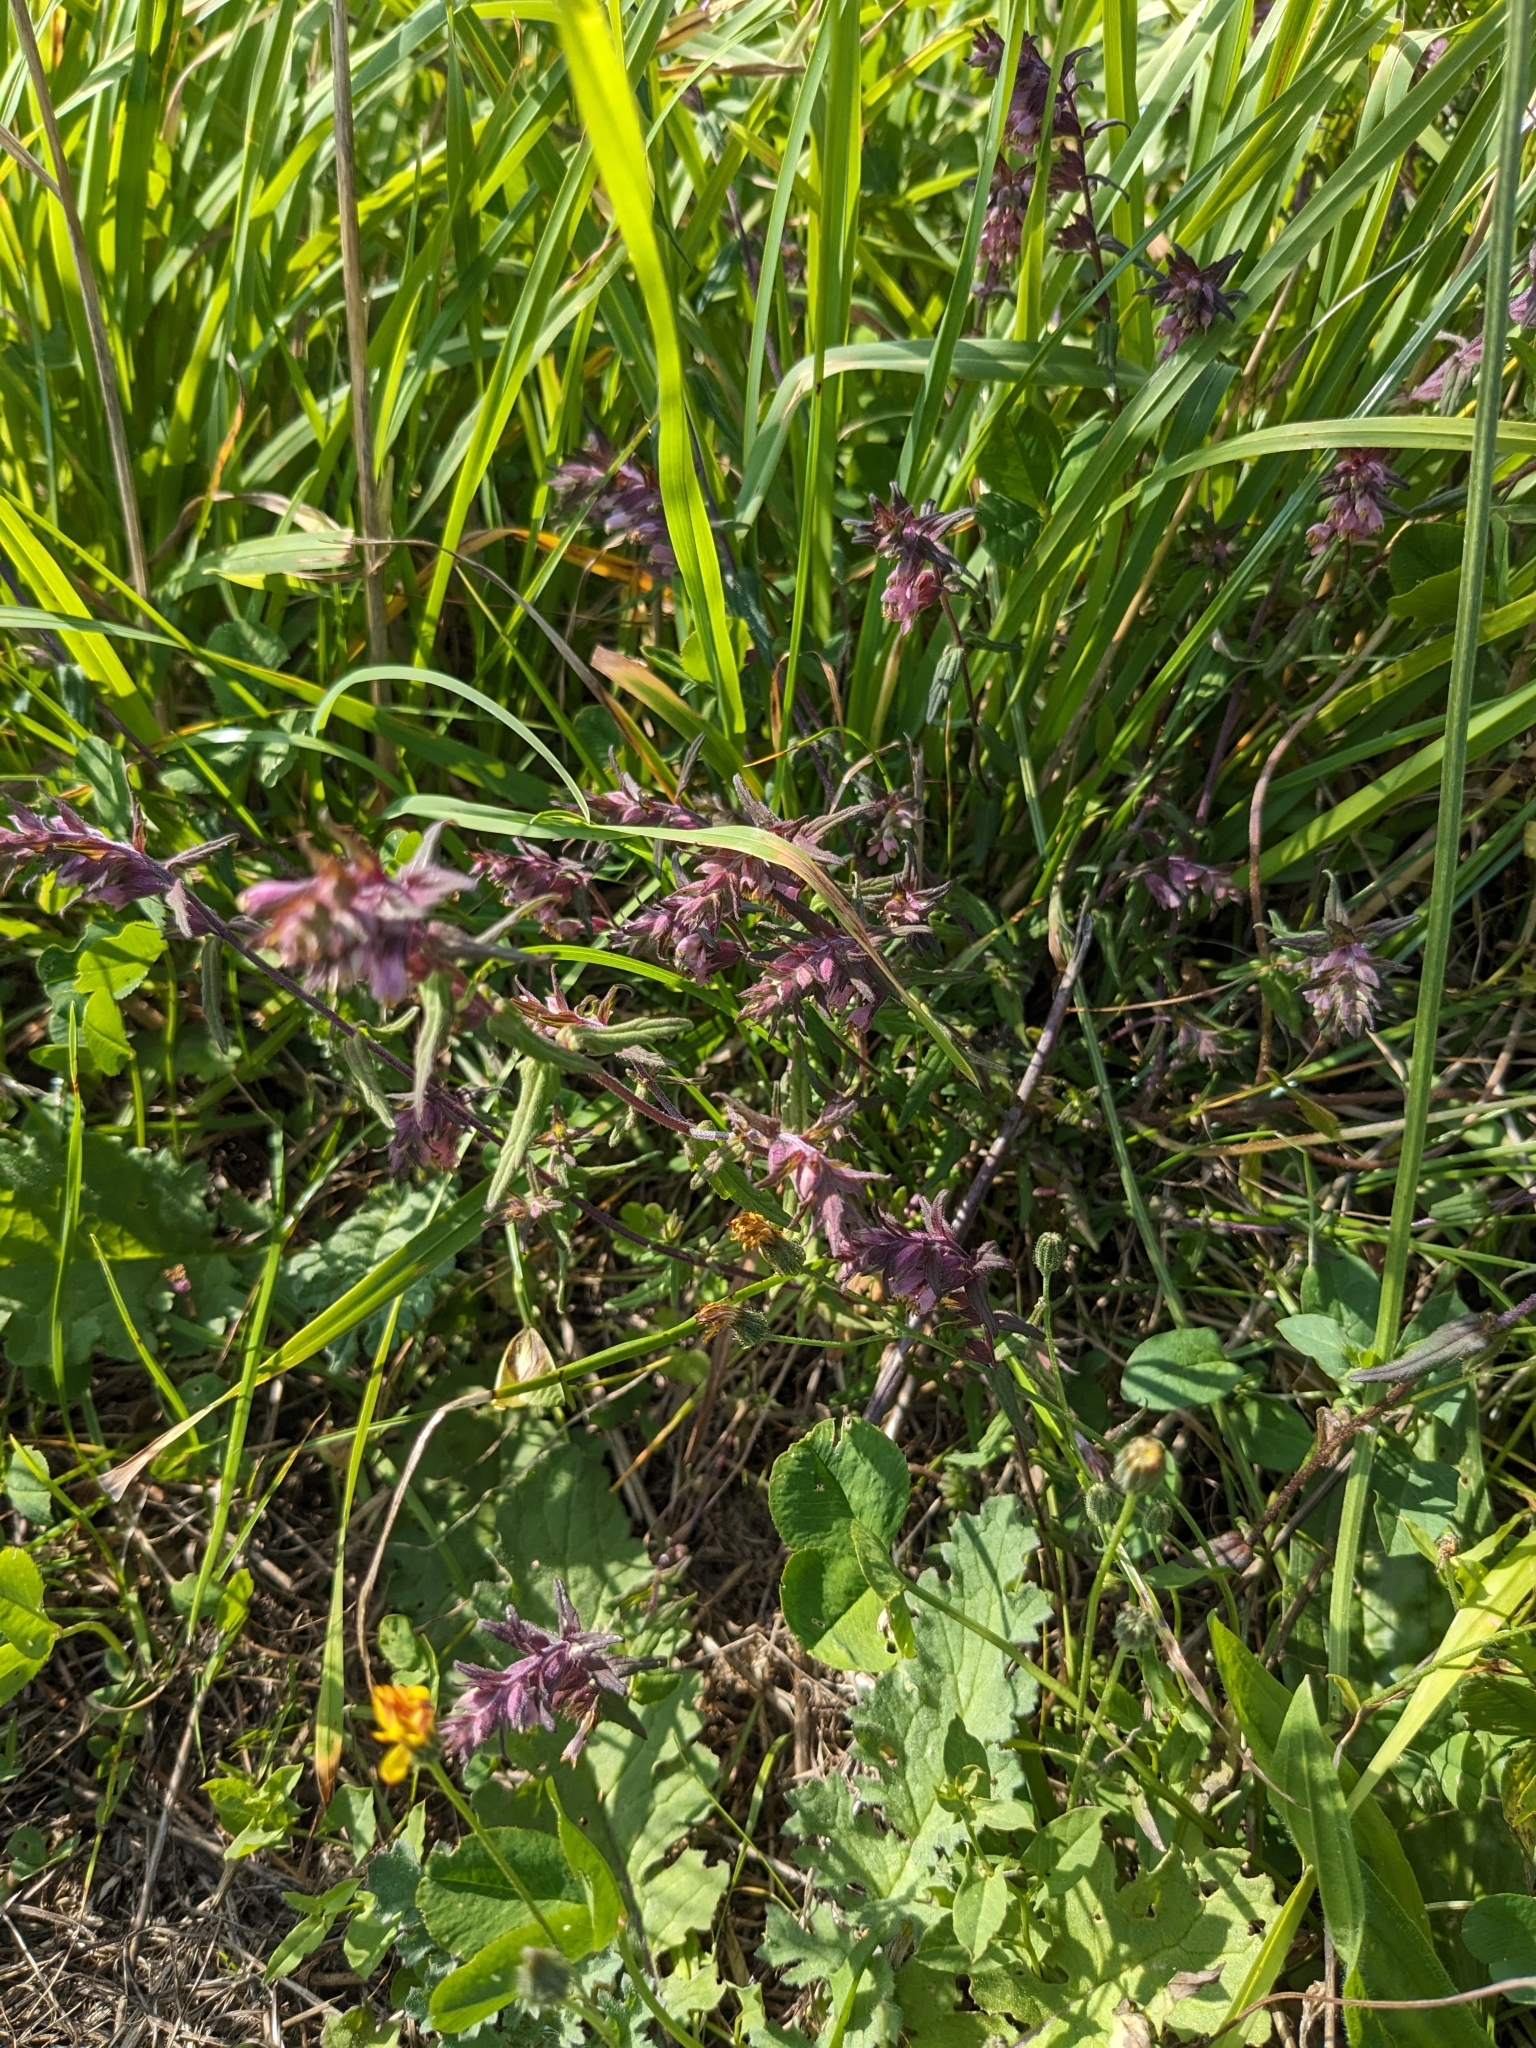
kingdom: Plantae
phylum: Tracheophyta
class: Magnoliopsida
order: Lamiales
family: Orobanchaceae
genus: Odontites
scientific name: Odontites vernus
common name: Red bartsia
